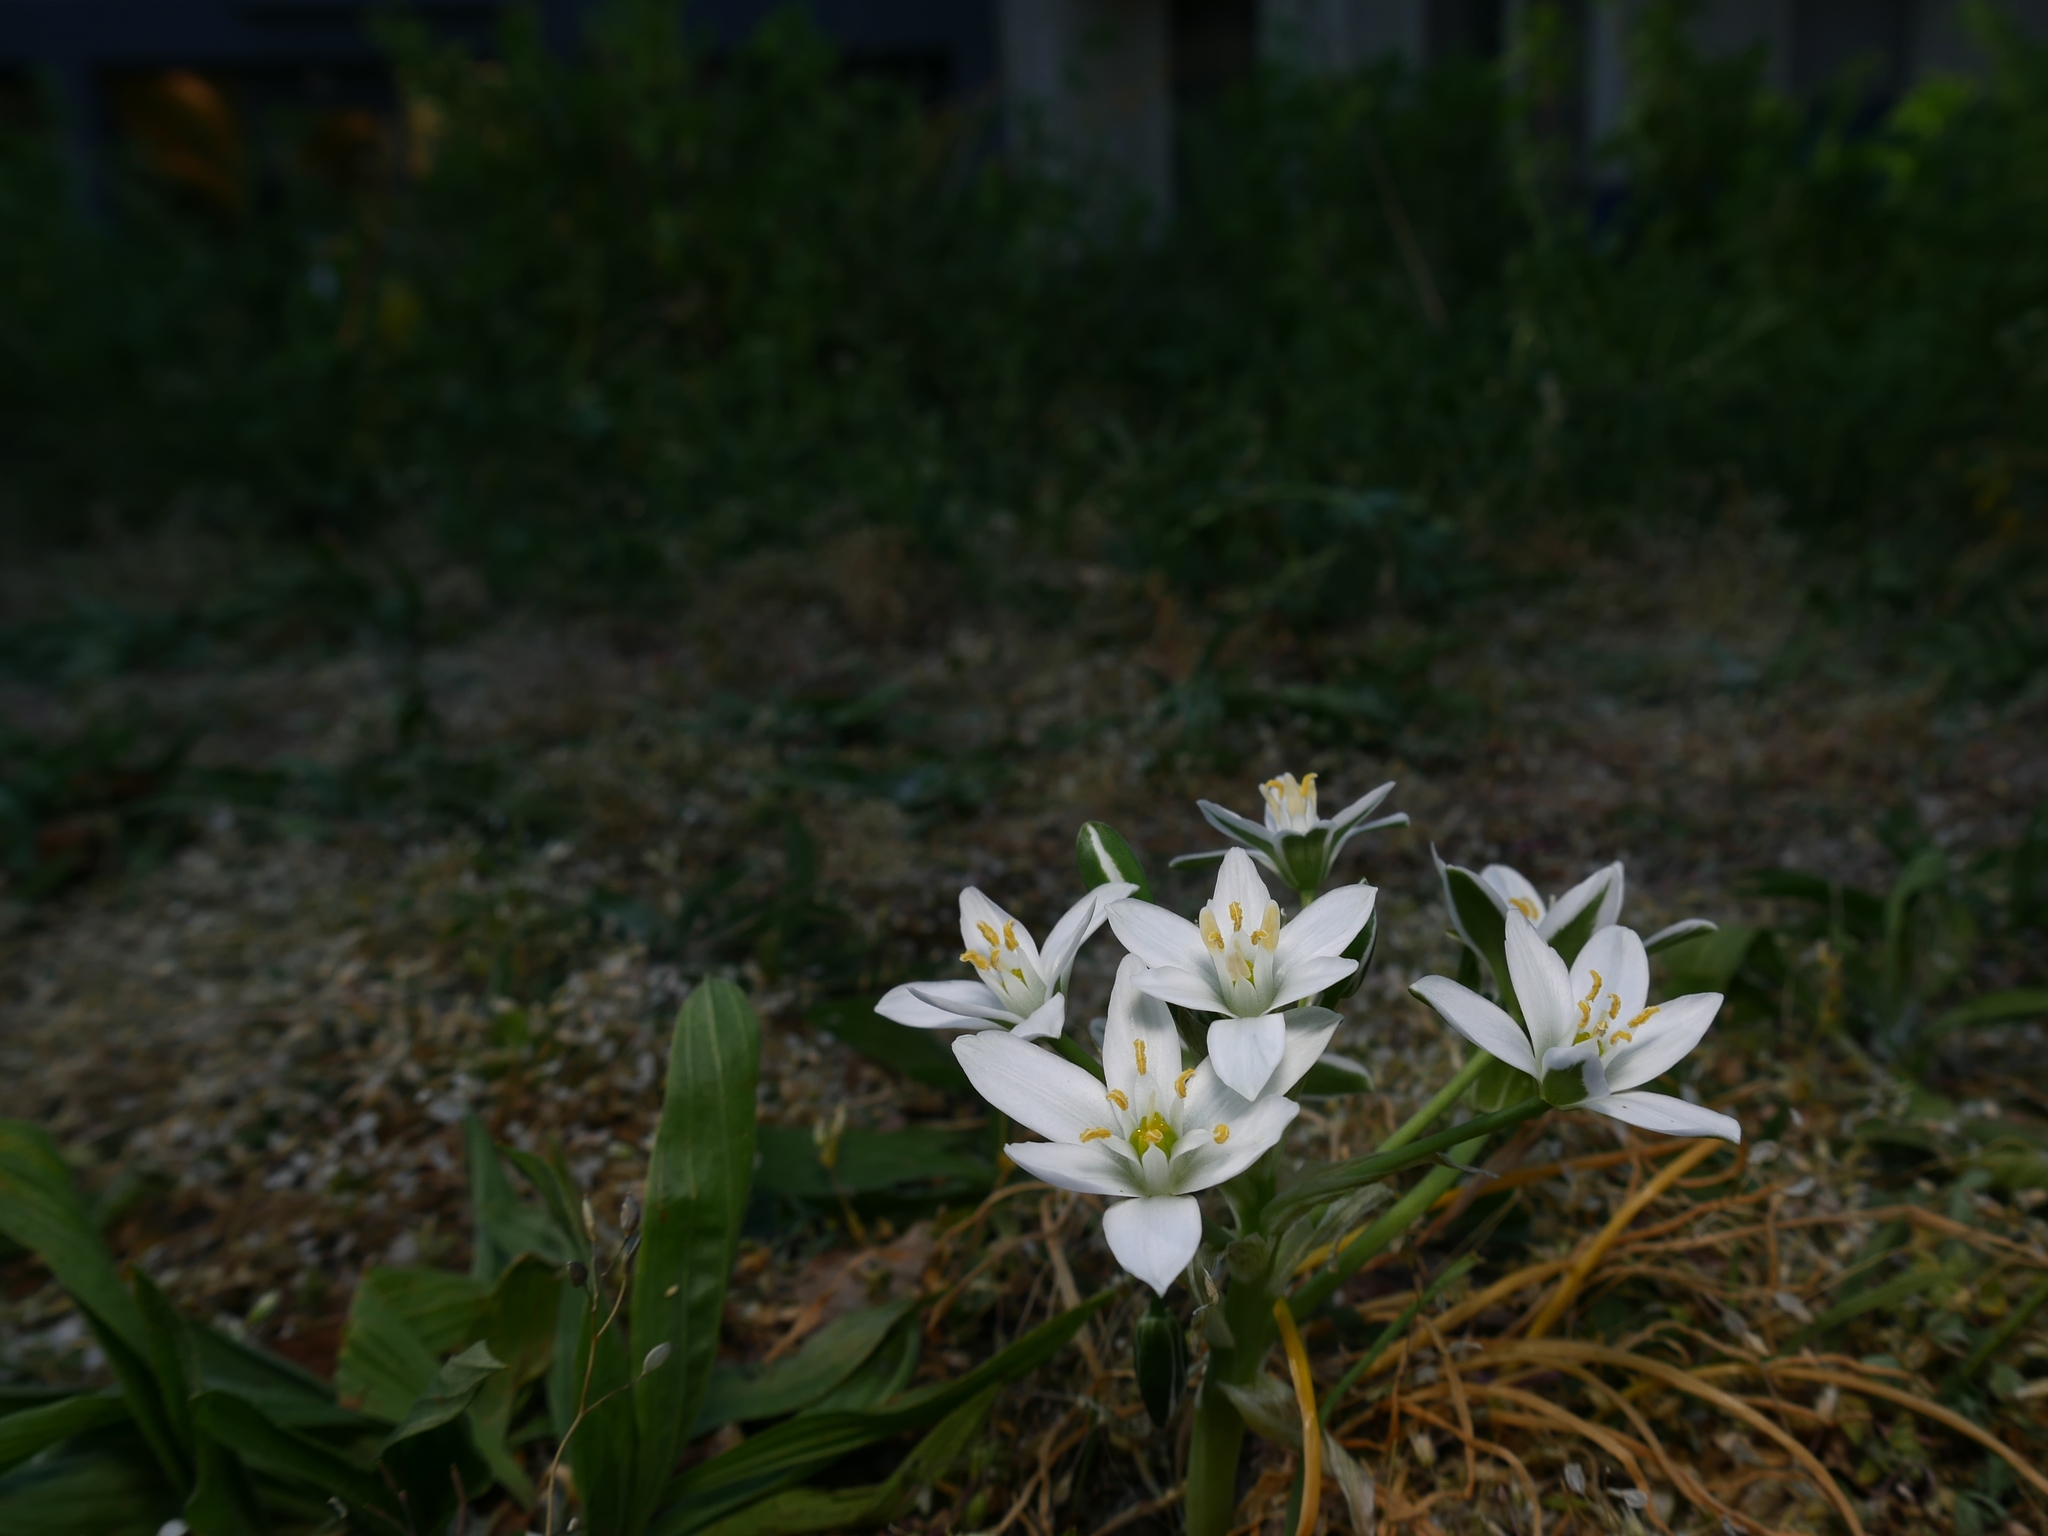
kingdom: Plantae
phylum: Tracheophyta
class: Liliopsida
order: Asparagales
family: Asparagaceae
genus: Ornithogalum
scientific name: Ornithogalum umbellatum
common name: Garden star-of-bethlehem
